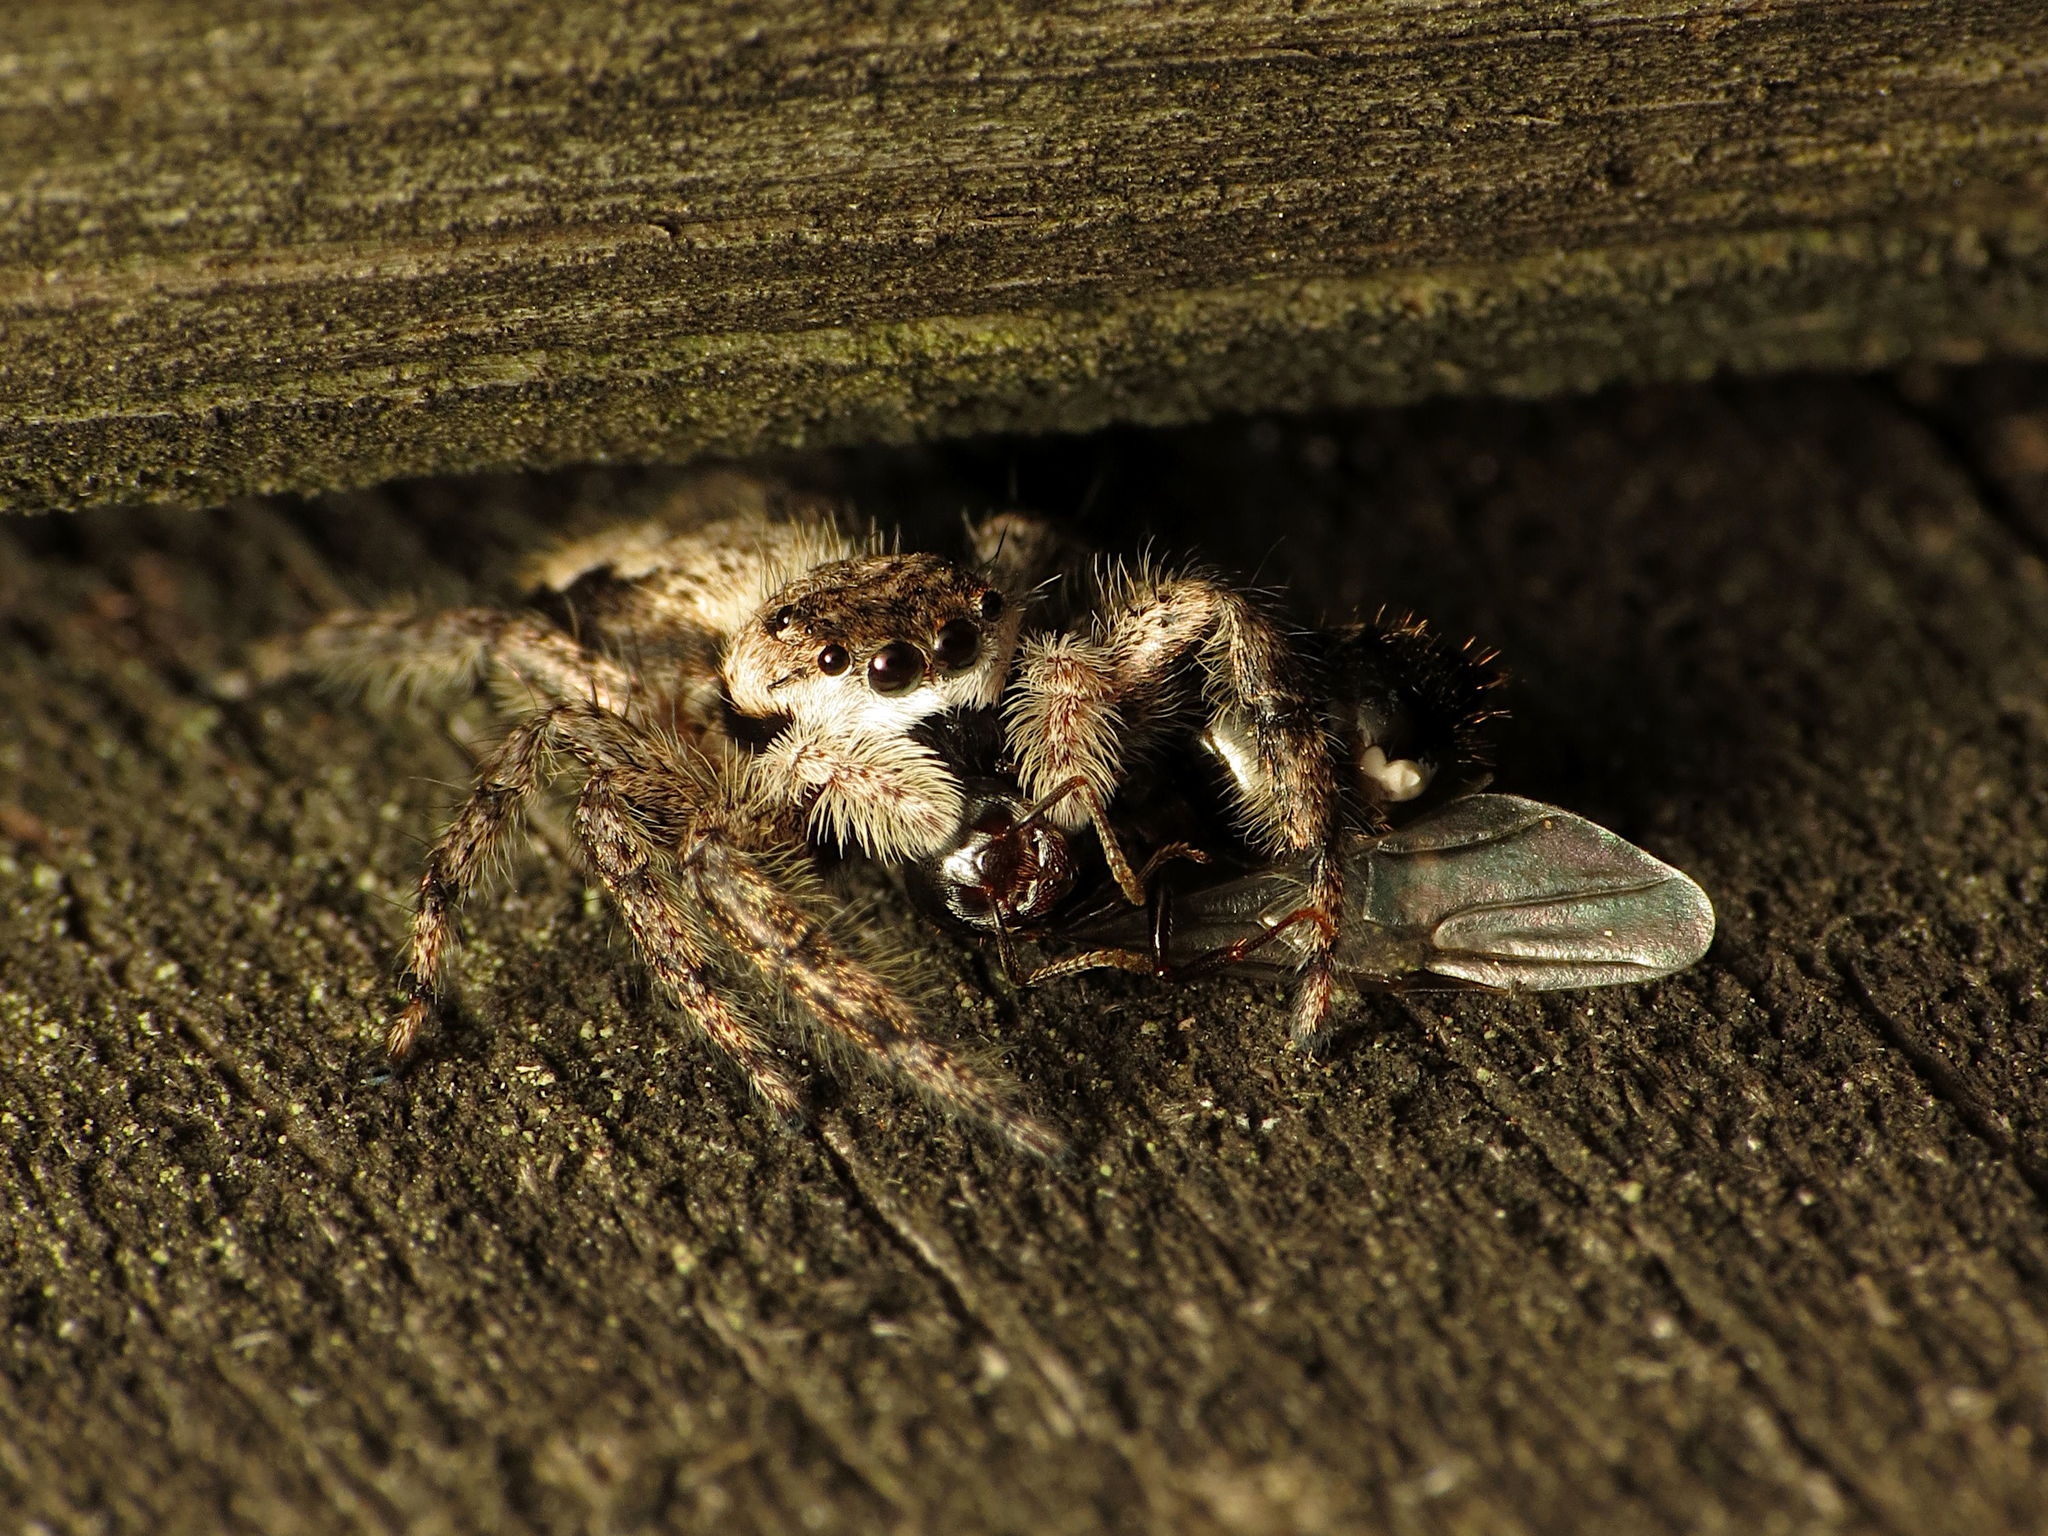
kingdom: Animalia
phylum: Arthropoda
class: Arachnida
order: Araneae
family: Salticidae
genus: Platycryptus
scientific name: Platycryptus undatus
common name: Tan jumping spider
